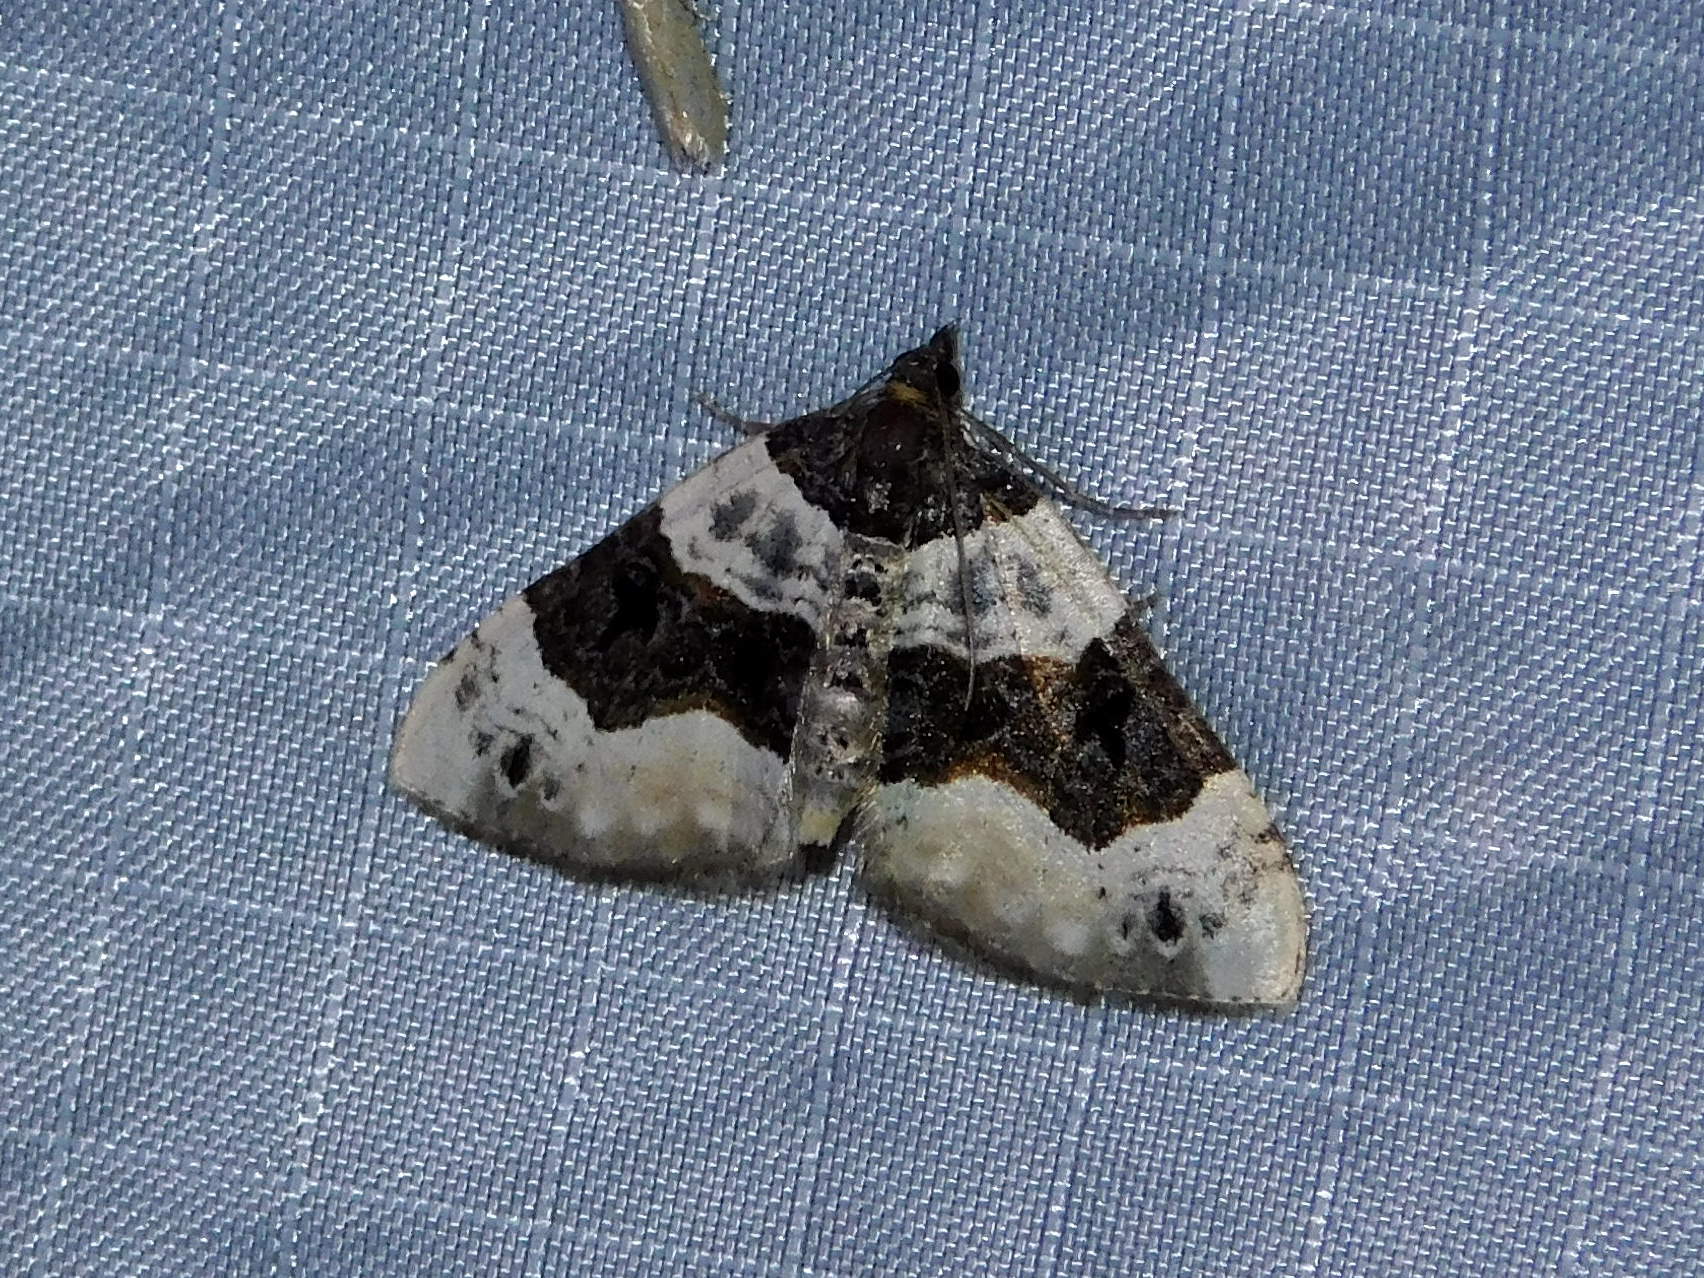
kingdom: Animalia
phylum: Arthropoda
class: Insecta
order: Lepidoptera
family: Geometridae
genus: Cosmorhoe
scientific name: Cosmorhoe ocellata
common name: Purple bar
